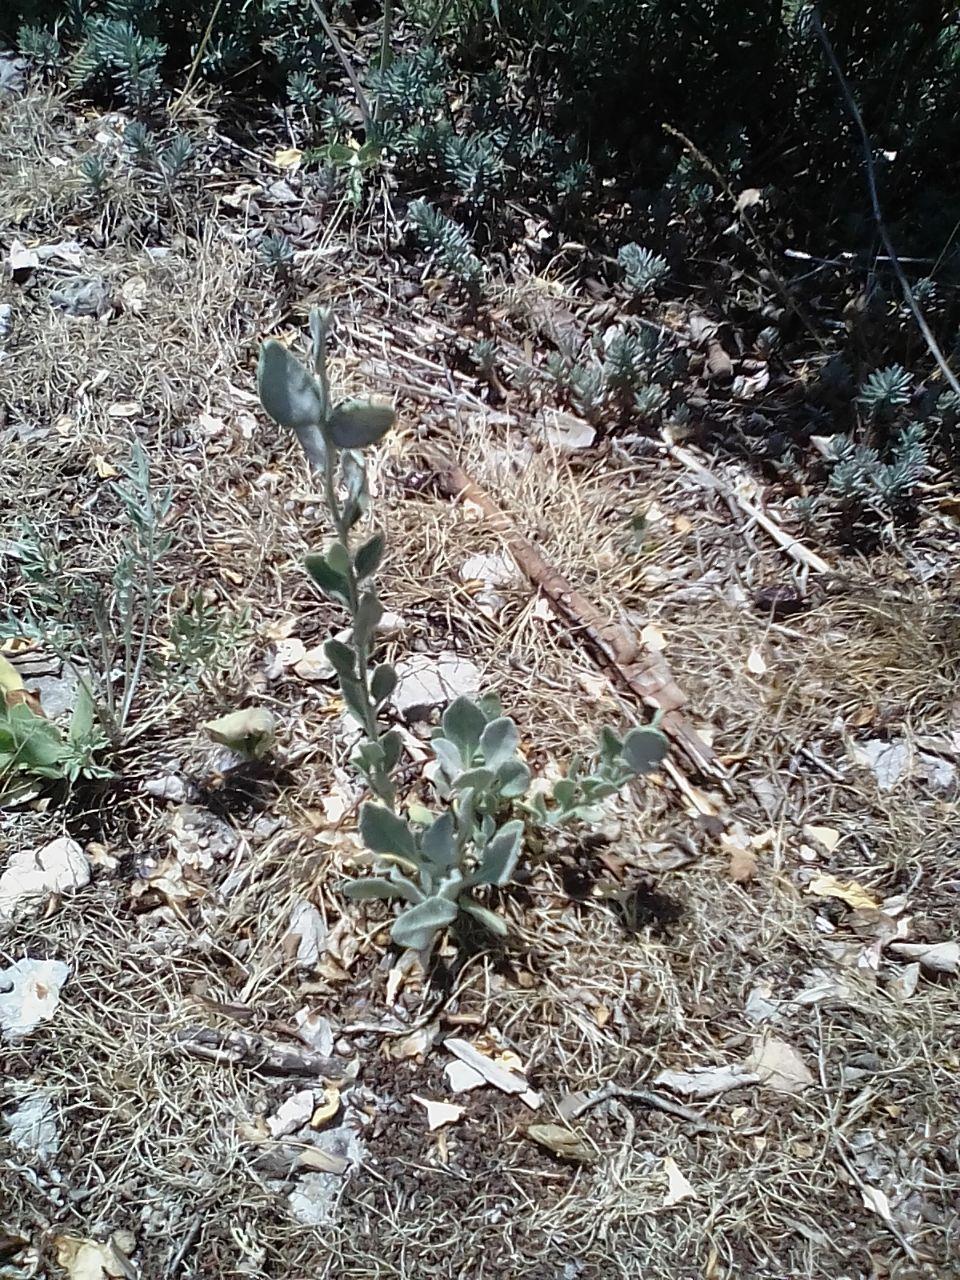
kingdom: Plantae
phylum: Tracheophyta
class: Magnoliopsida
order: Brassicales
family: Brassicaceae
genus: Fibigia
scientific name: Fibigia clypeata
